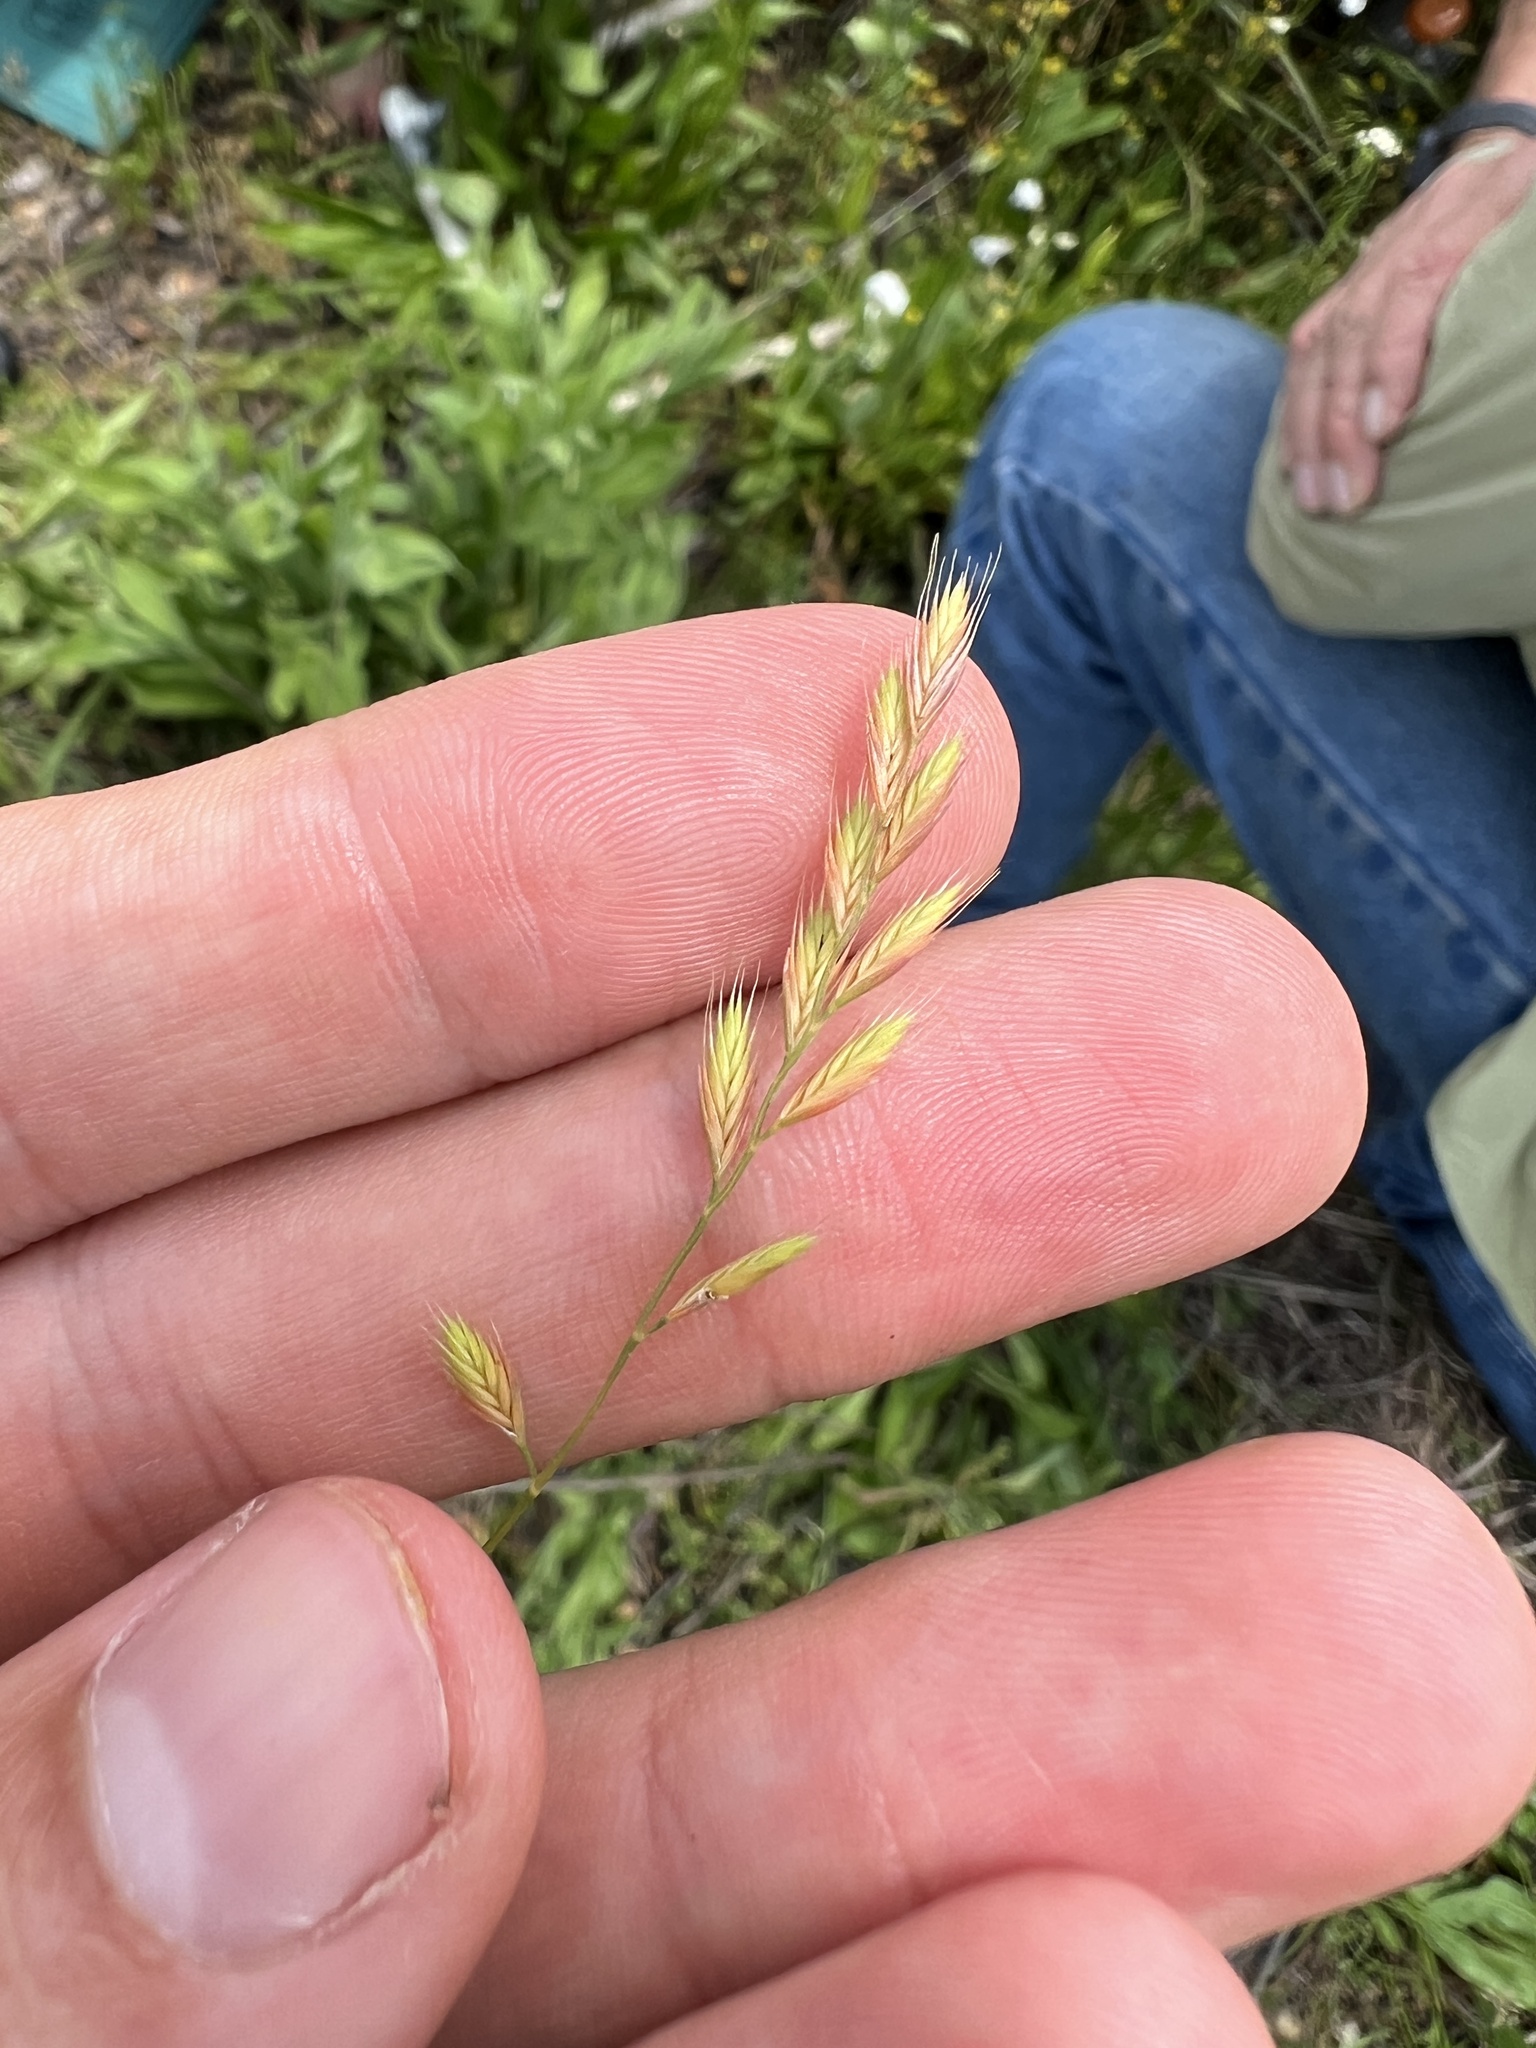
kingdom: Plantae
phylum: Tracheophyta
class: Liliopsida
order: Poales
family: Poaceae
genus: Festuca
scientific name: Festuca octoflora
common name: Sixweeks grass
